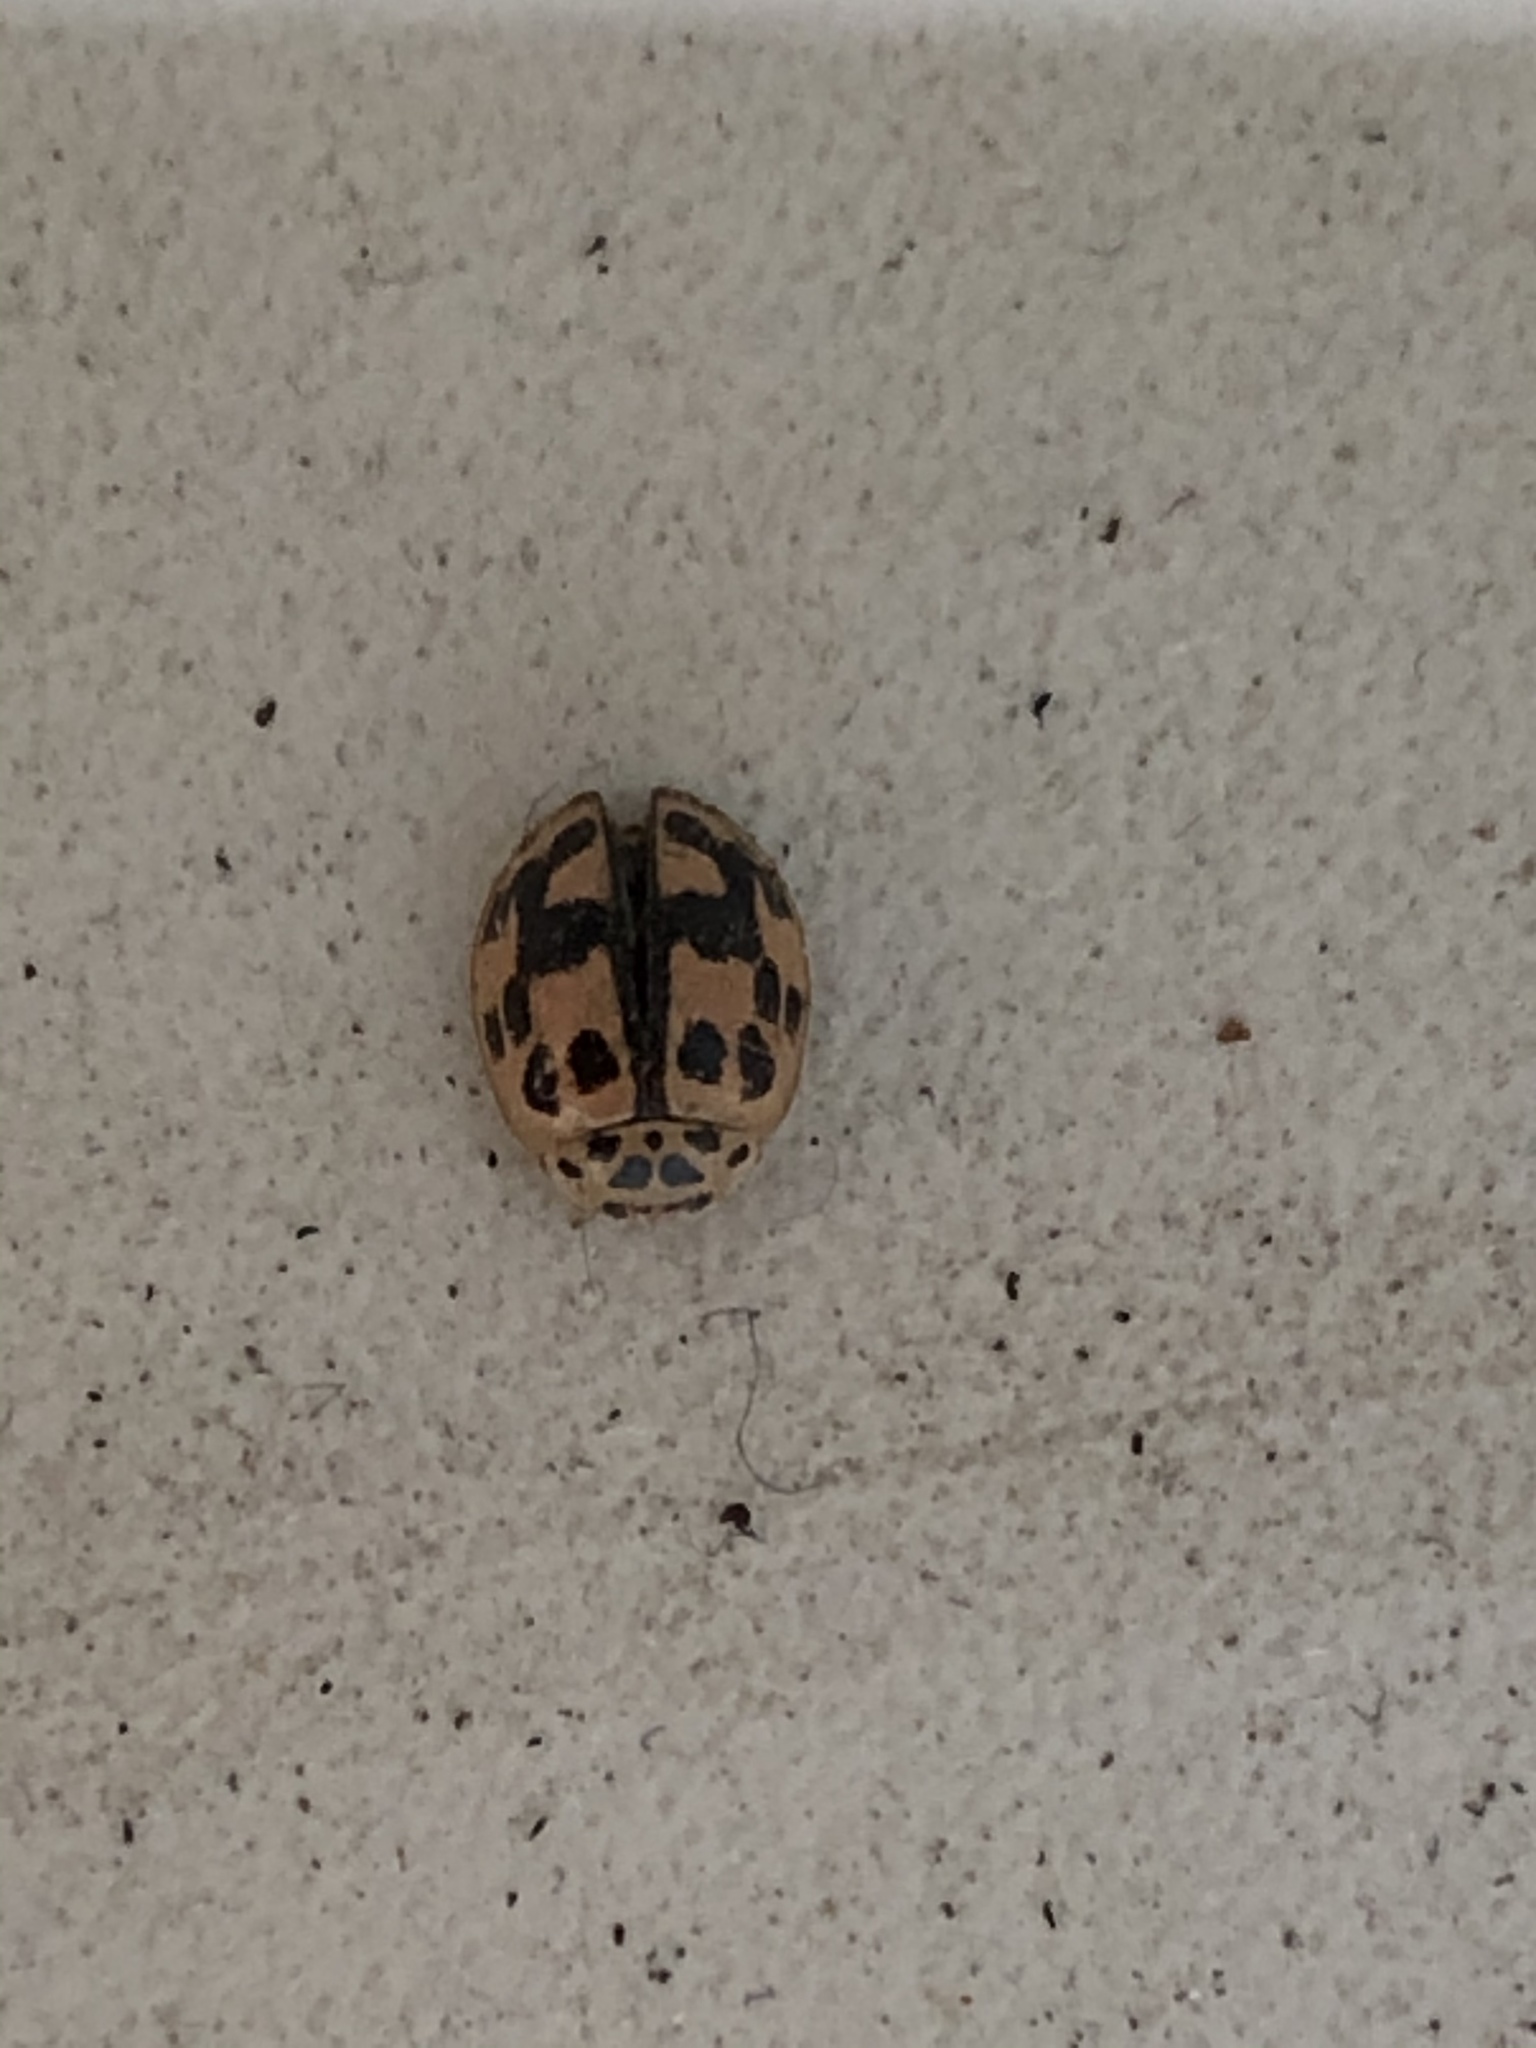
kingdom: Animalia
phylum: Arthropoda
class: Insecta
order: Coleoptera
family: Coccinellidae
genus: Oenopia
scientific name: Oenopia conglobata
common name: Ladybird beetle
